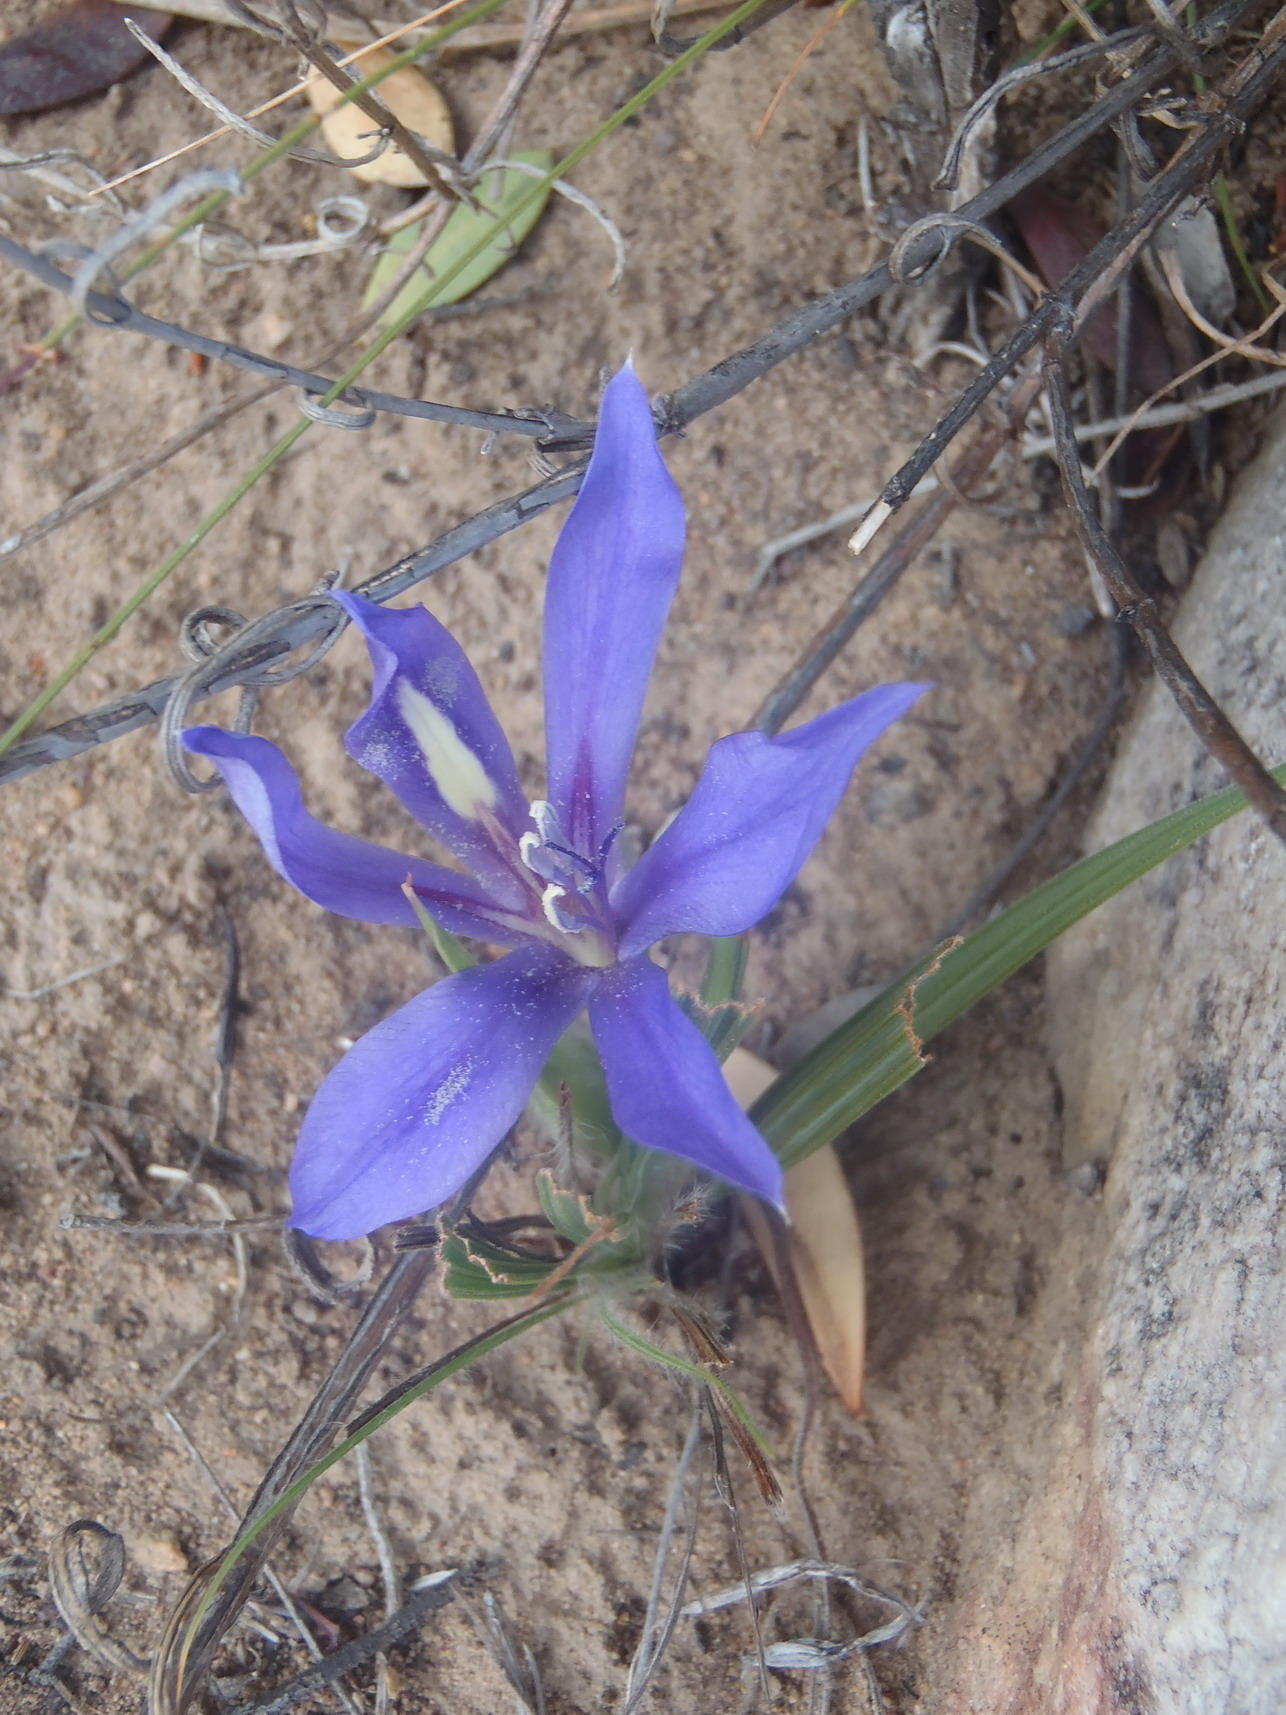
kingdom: Plantae
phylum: Tracheophyta
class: Liliopsida
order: Asparagales
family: Iridaceae
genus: Babiana
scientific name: Babiana sambucina
